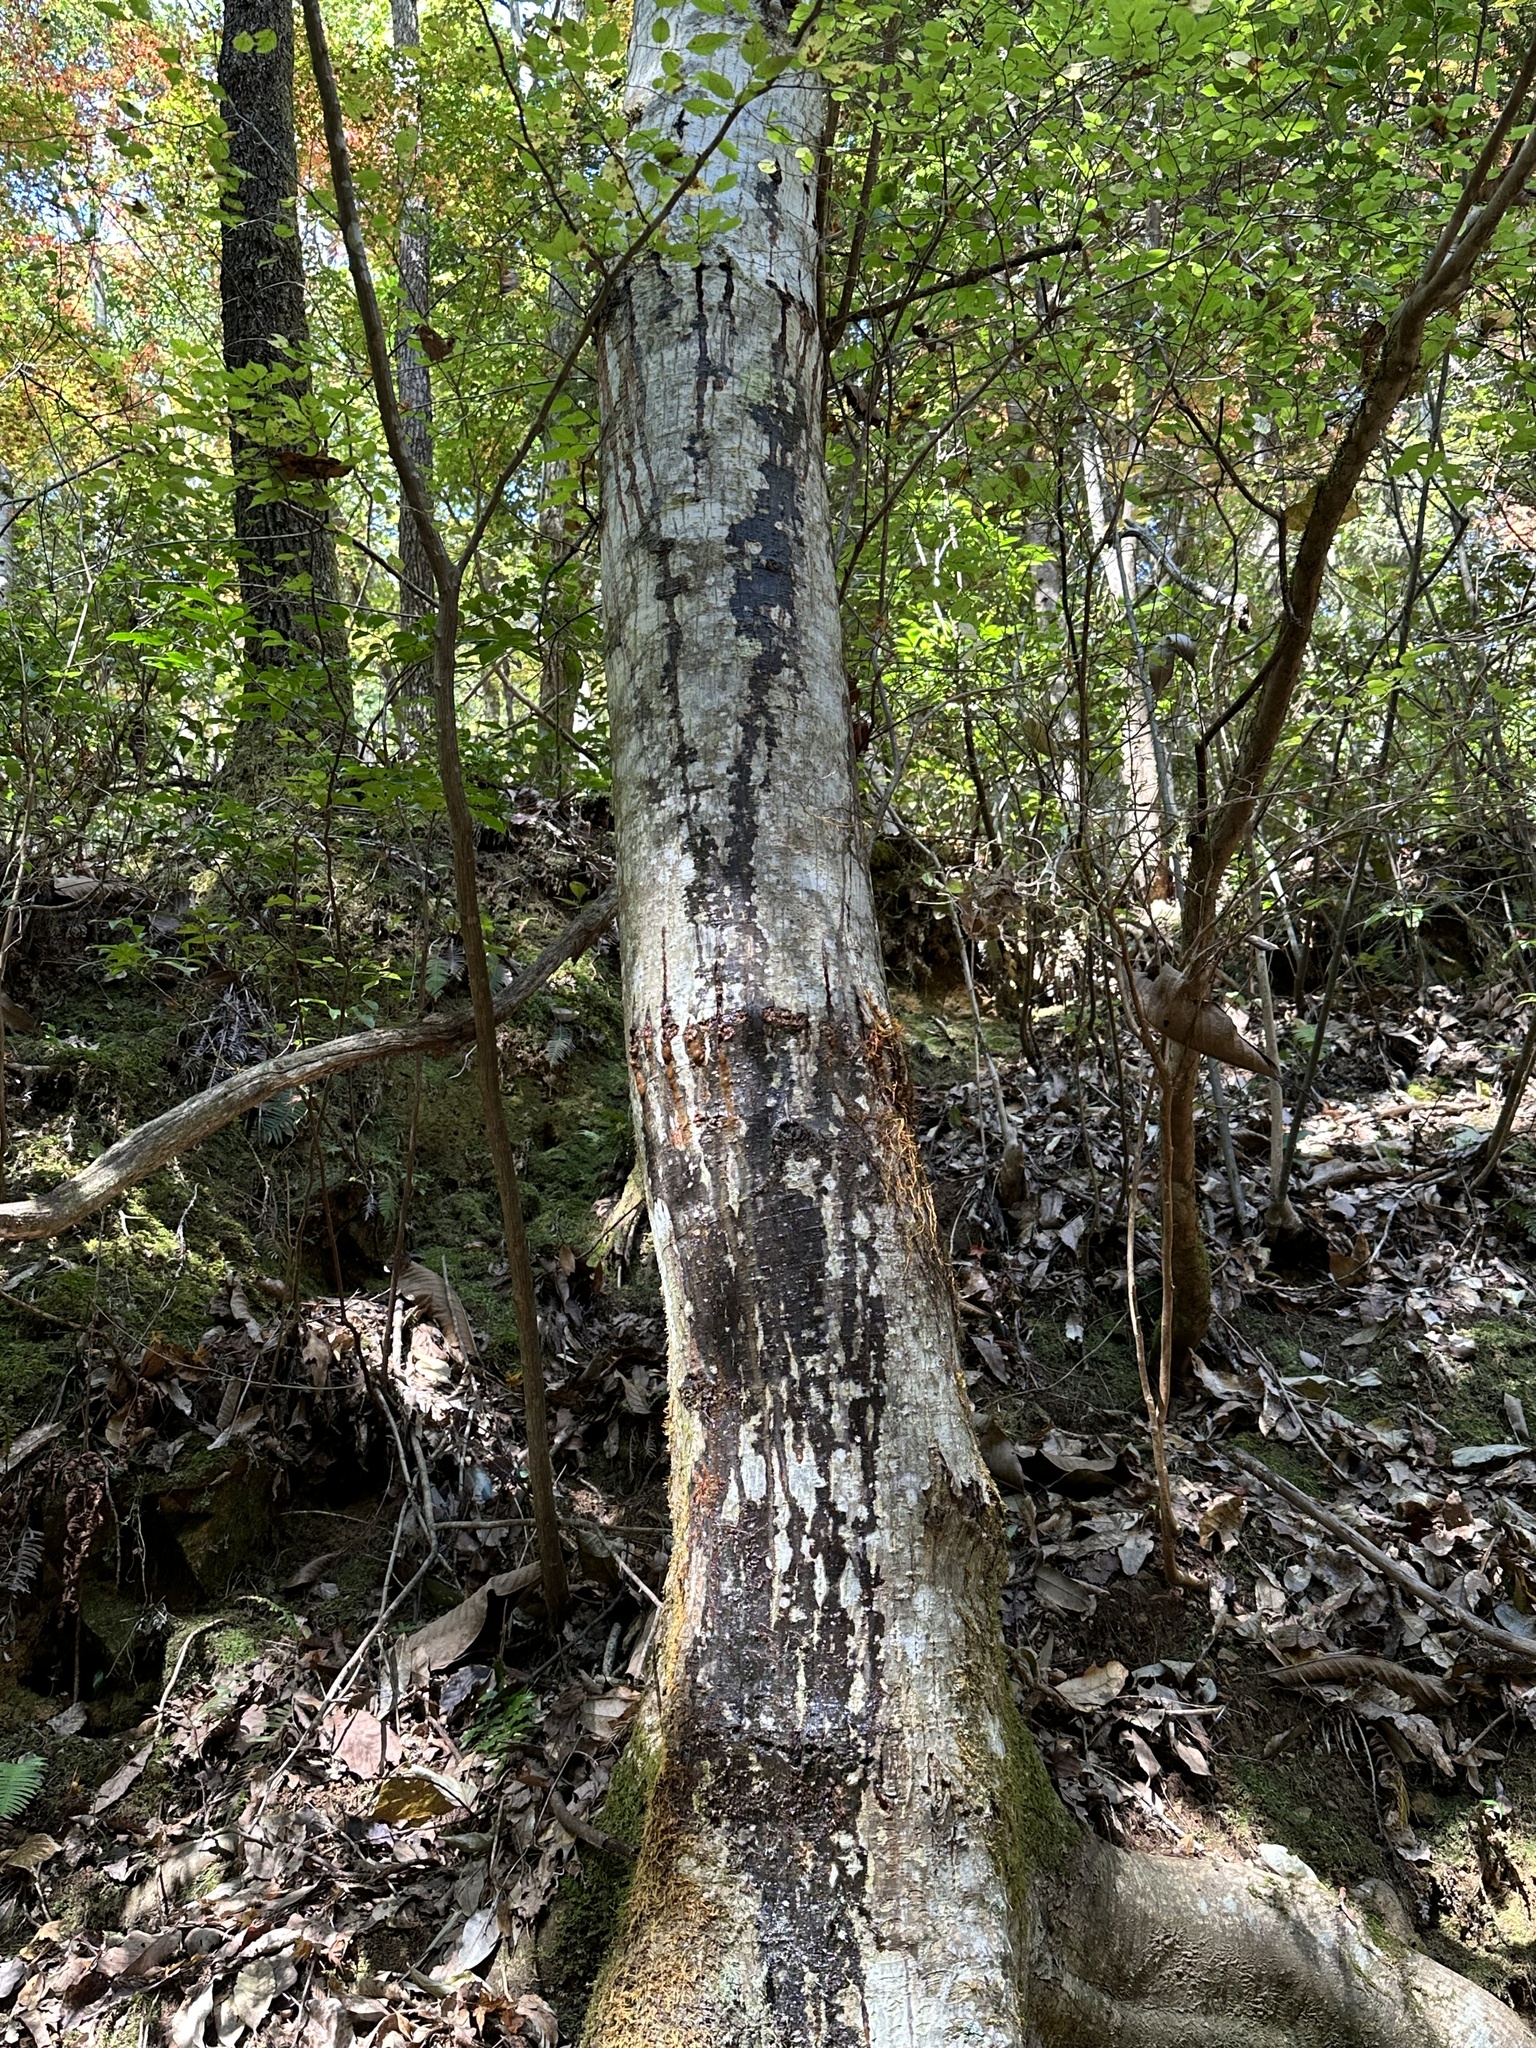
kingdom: Animalia
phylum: Arthropoda
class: Insecta
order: Coleoptera
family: Cerambycidae
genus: Batocera
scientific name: Batocera lineolata
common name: Whitestriped long-horned beetle
